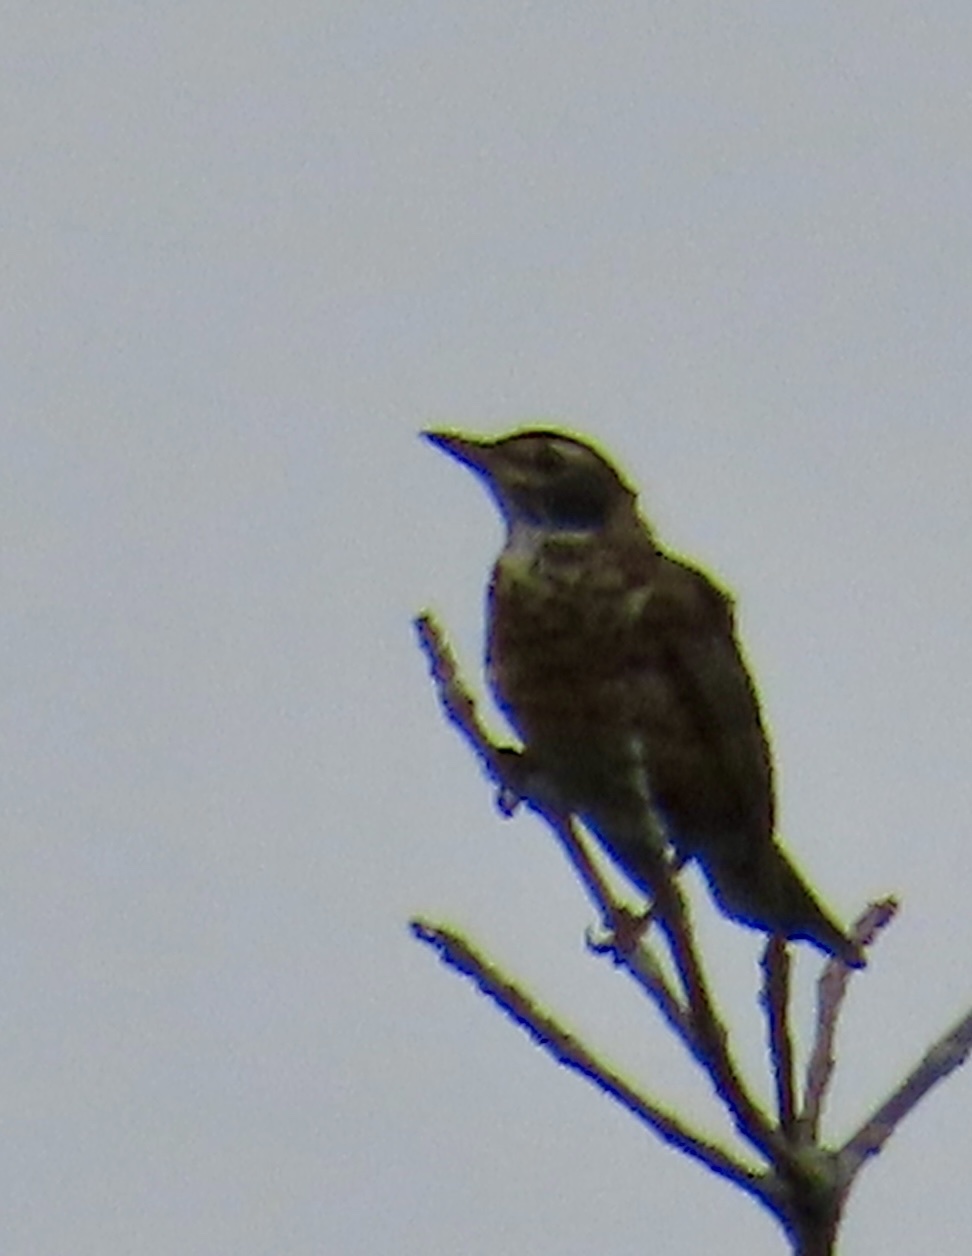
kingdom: Animalia
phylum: Chordata
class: Aves
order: Passeriformes
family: Turdidae
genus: Turdus
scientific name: Turdus migratorius
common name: American robin
